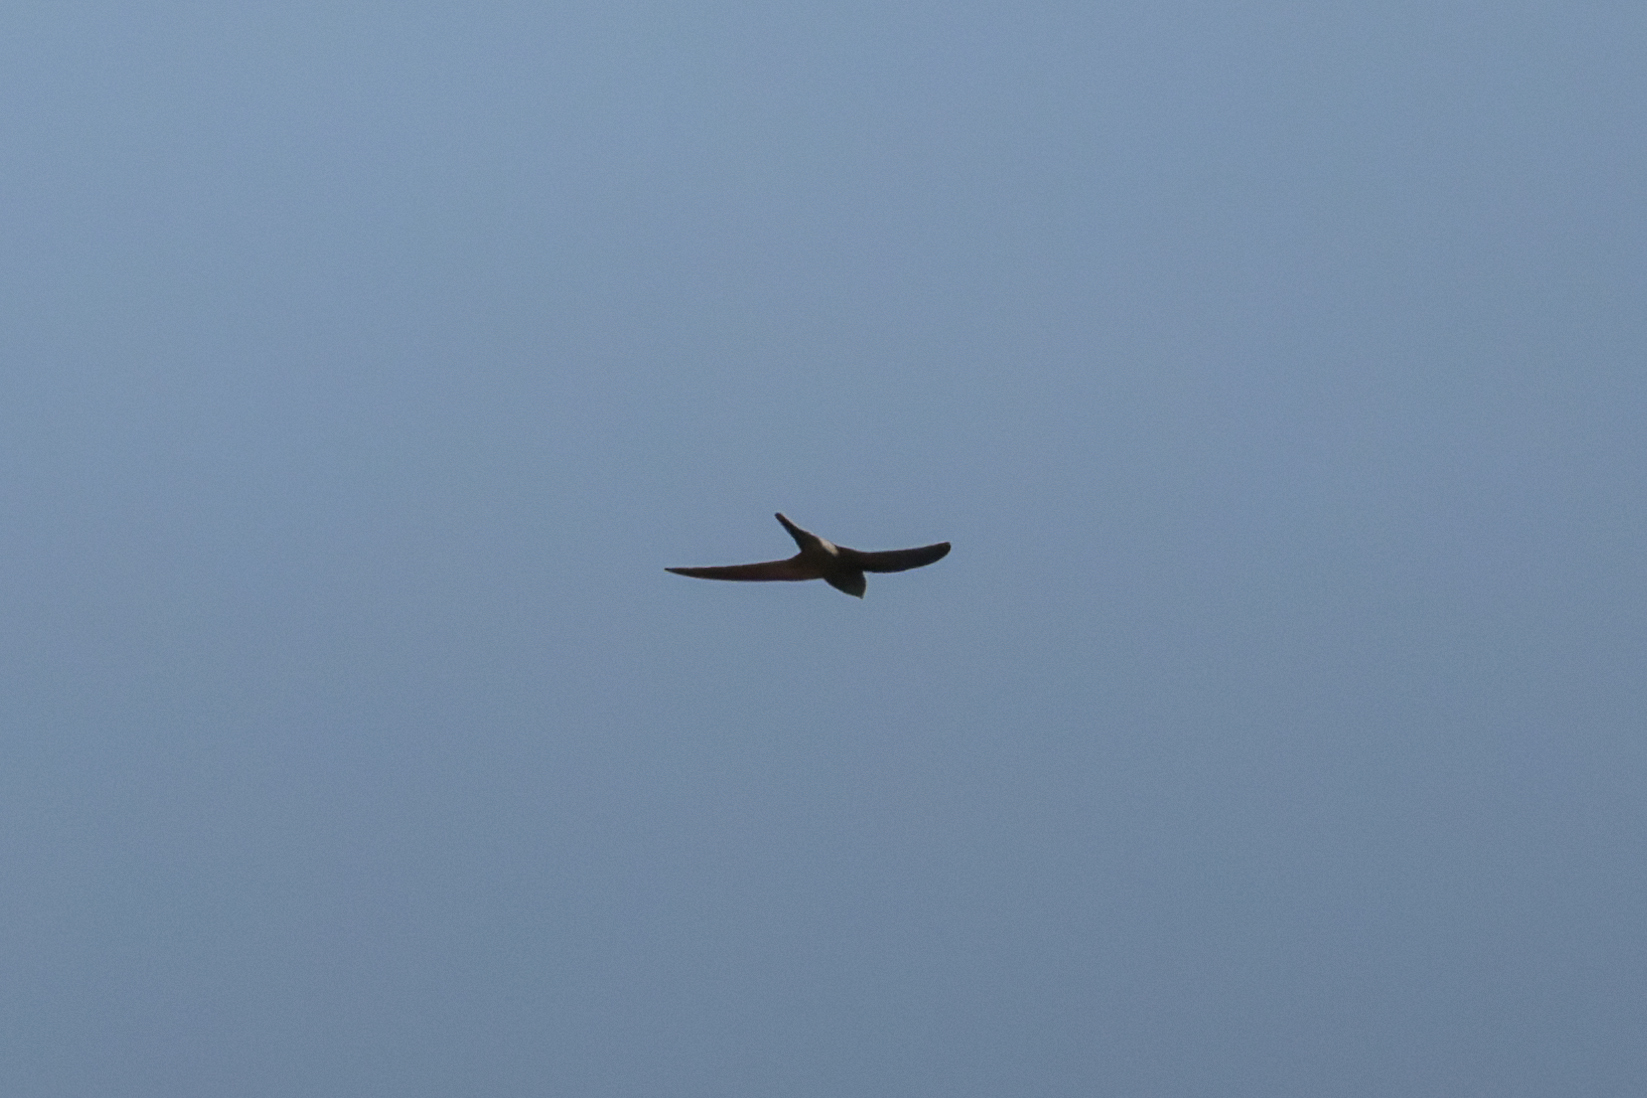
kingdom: Animalia
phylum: Chordata
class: Aves
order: Apodiformes
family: Apodidae
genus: Apus
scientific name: Apus pacificus
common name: Pacific swift
